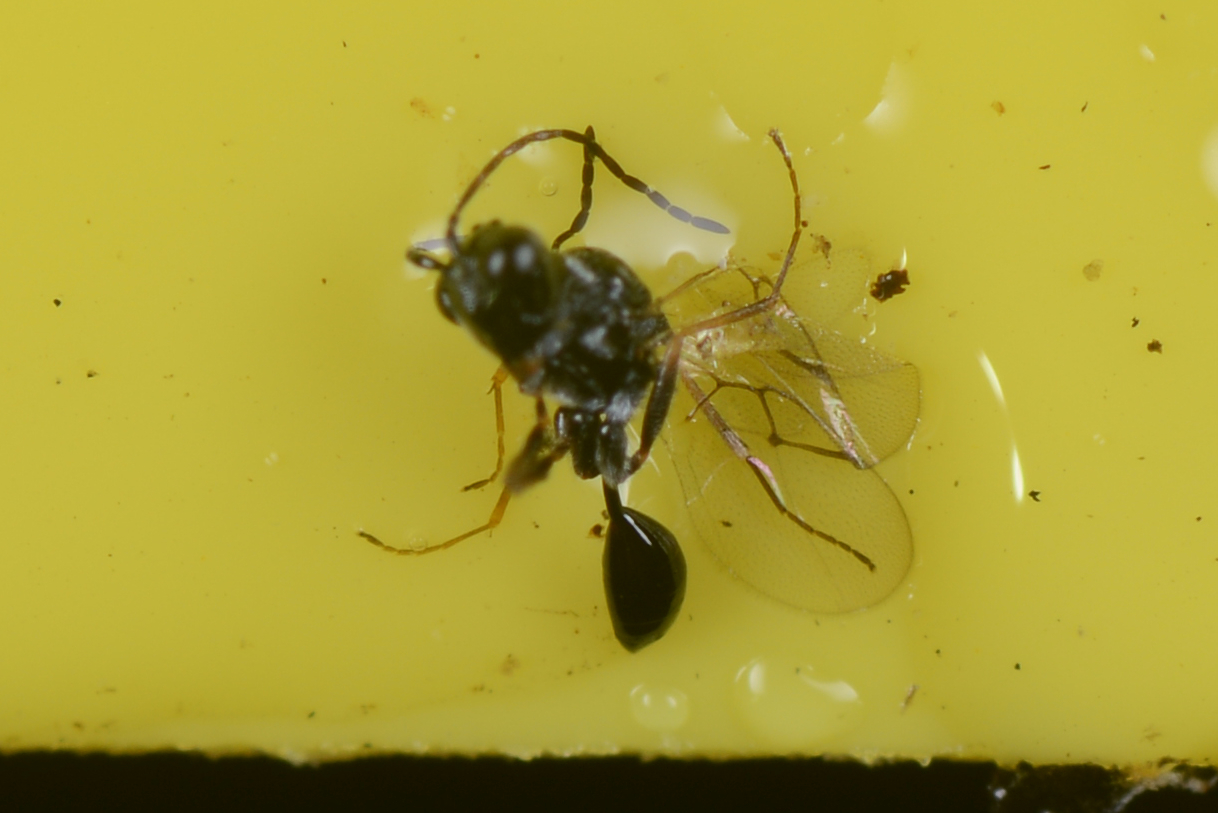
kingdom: Animalia
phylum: Arthropoda
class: Insecta
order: Hymenoptera
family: Figitidae
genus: Anacharis
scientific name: Anacharis zealandica
